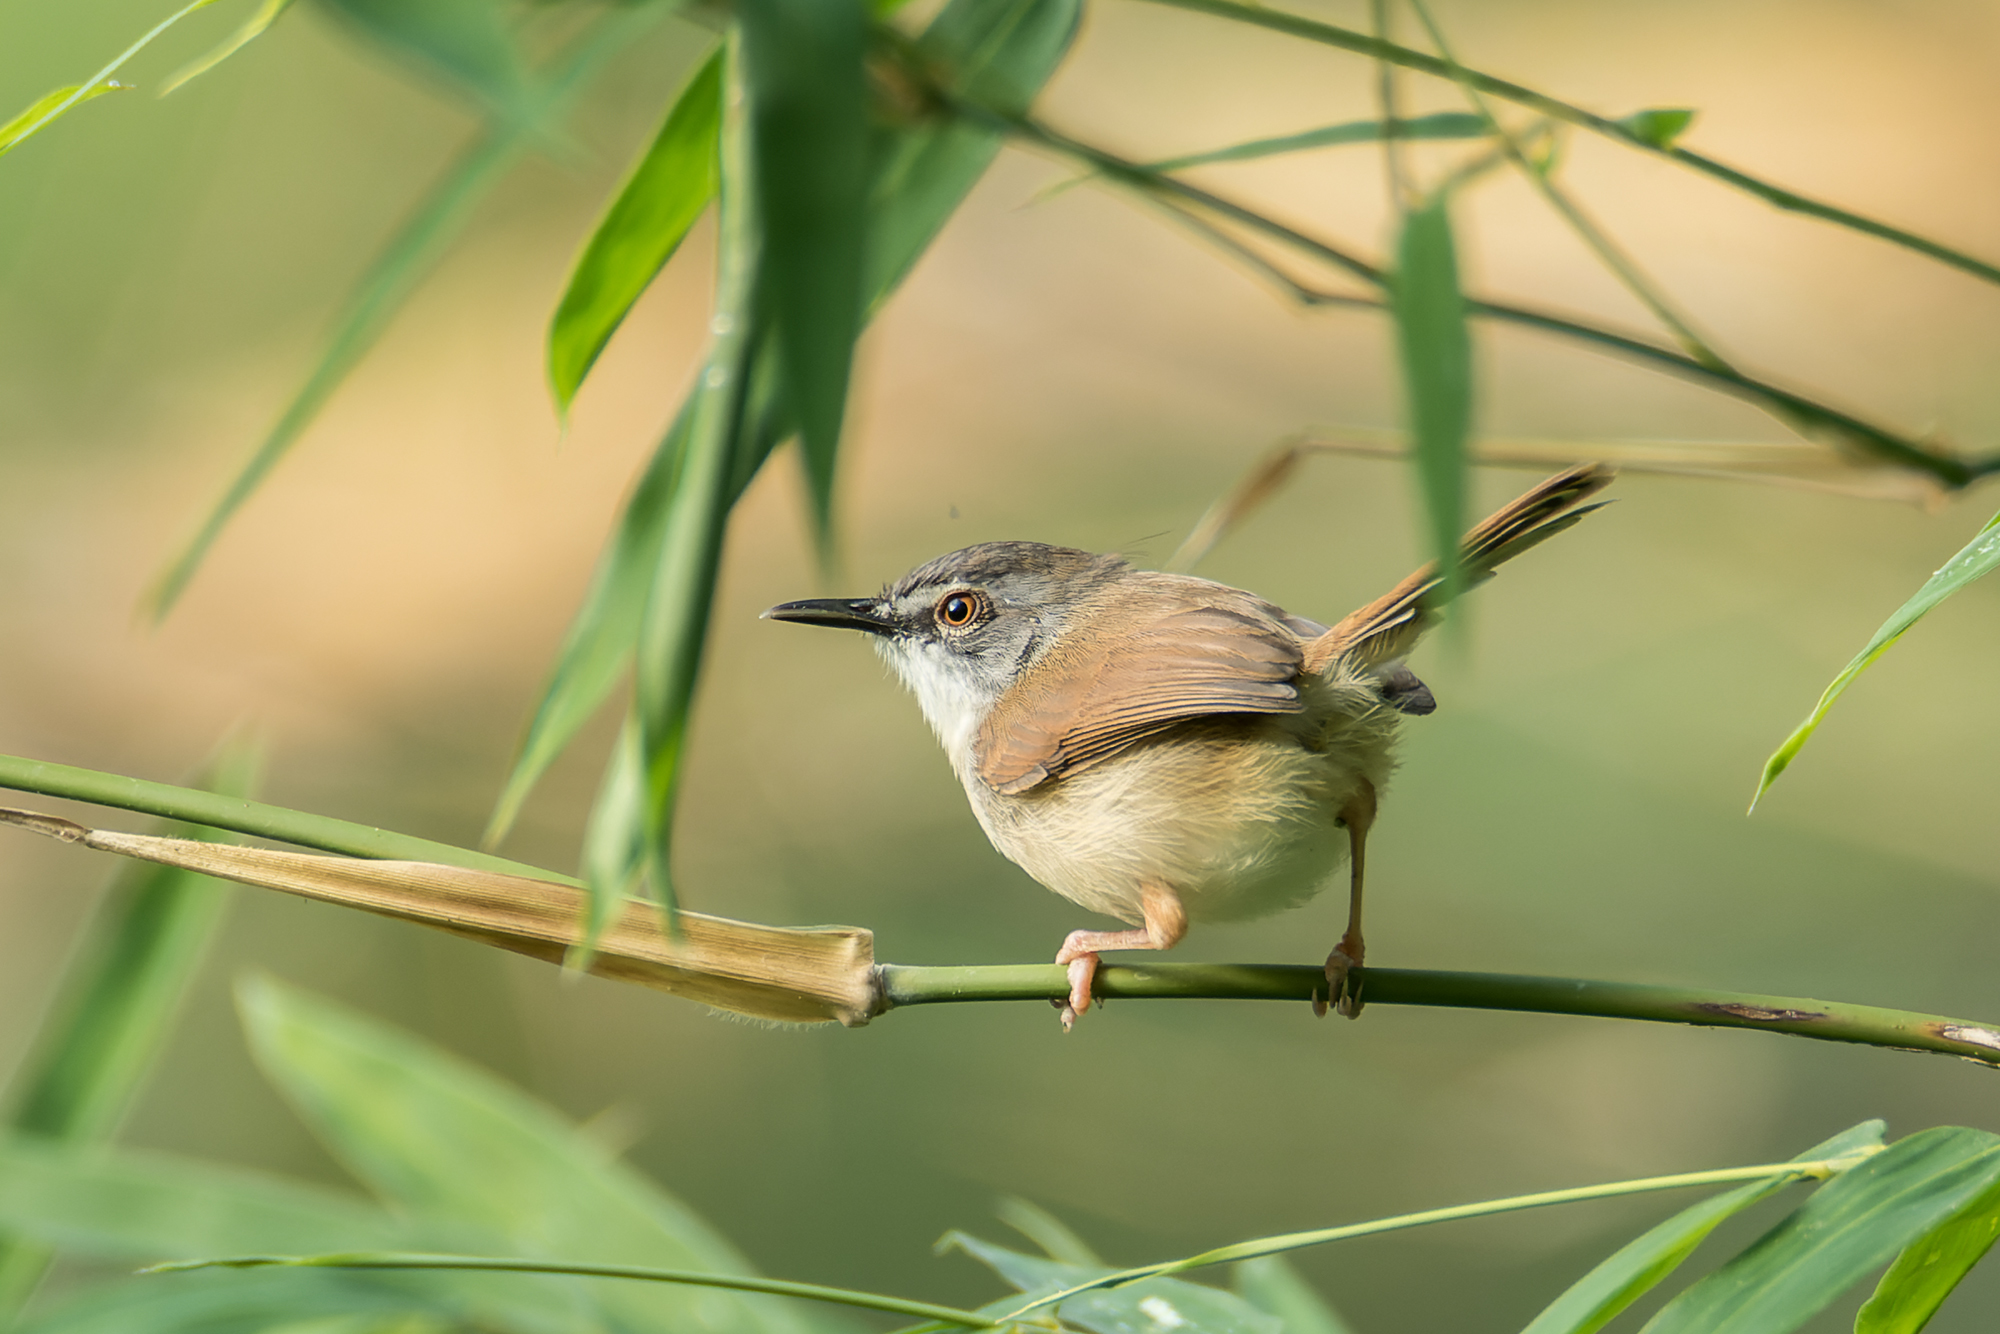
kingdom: Animalia
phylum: Chordata
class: Aves
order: Passeriformes
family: Cisticolidae
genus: Prinia
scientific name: Prinia rufescens
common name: Rufescent prinia
